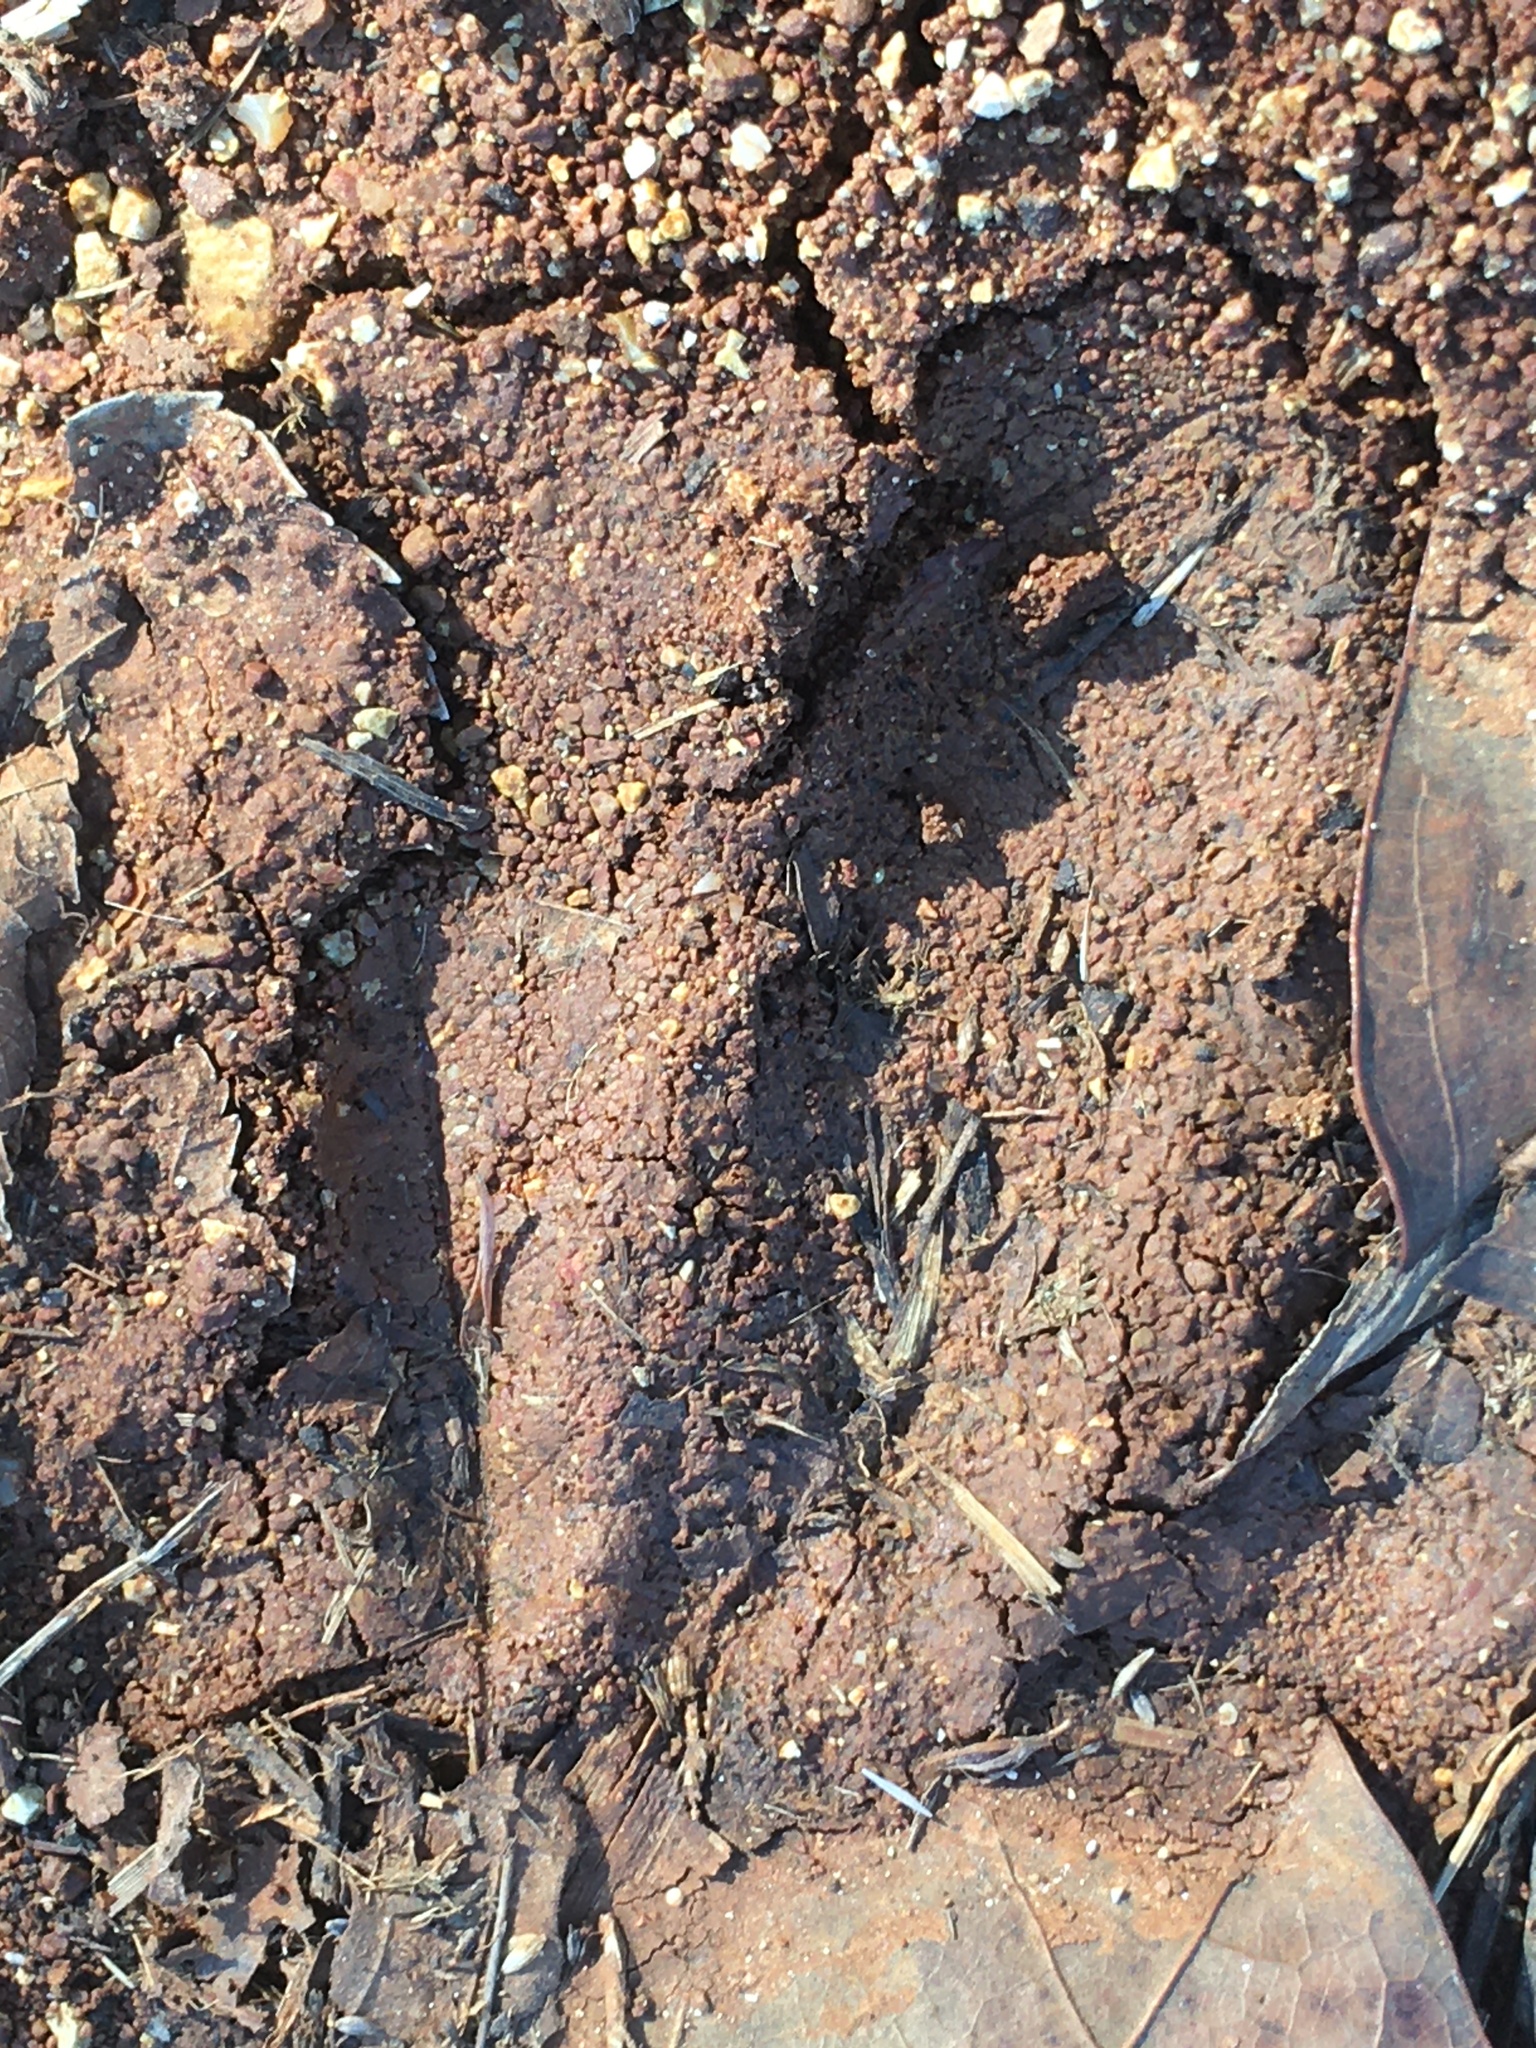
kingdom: Animalia
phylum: Chordata
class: Mammalia
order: Artiodactyla
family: Cervidae
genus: Odocoileus
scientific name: Odocoileus virginianus
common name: White-tailed deer
